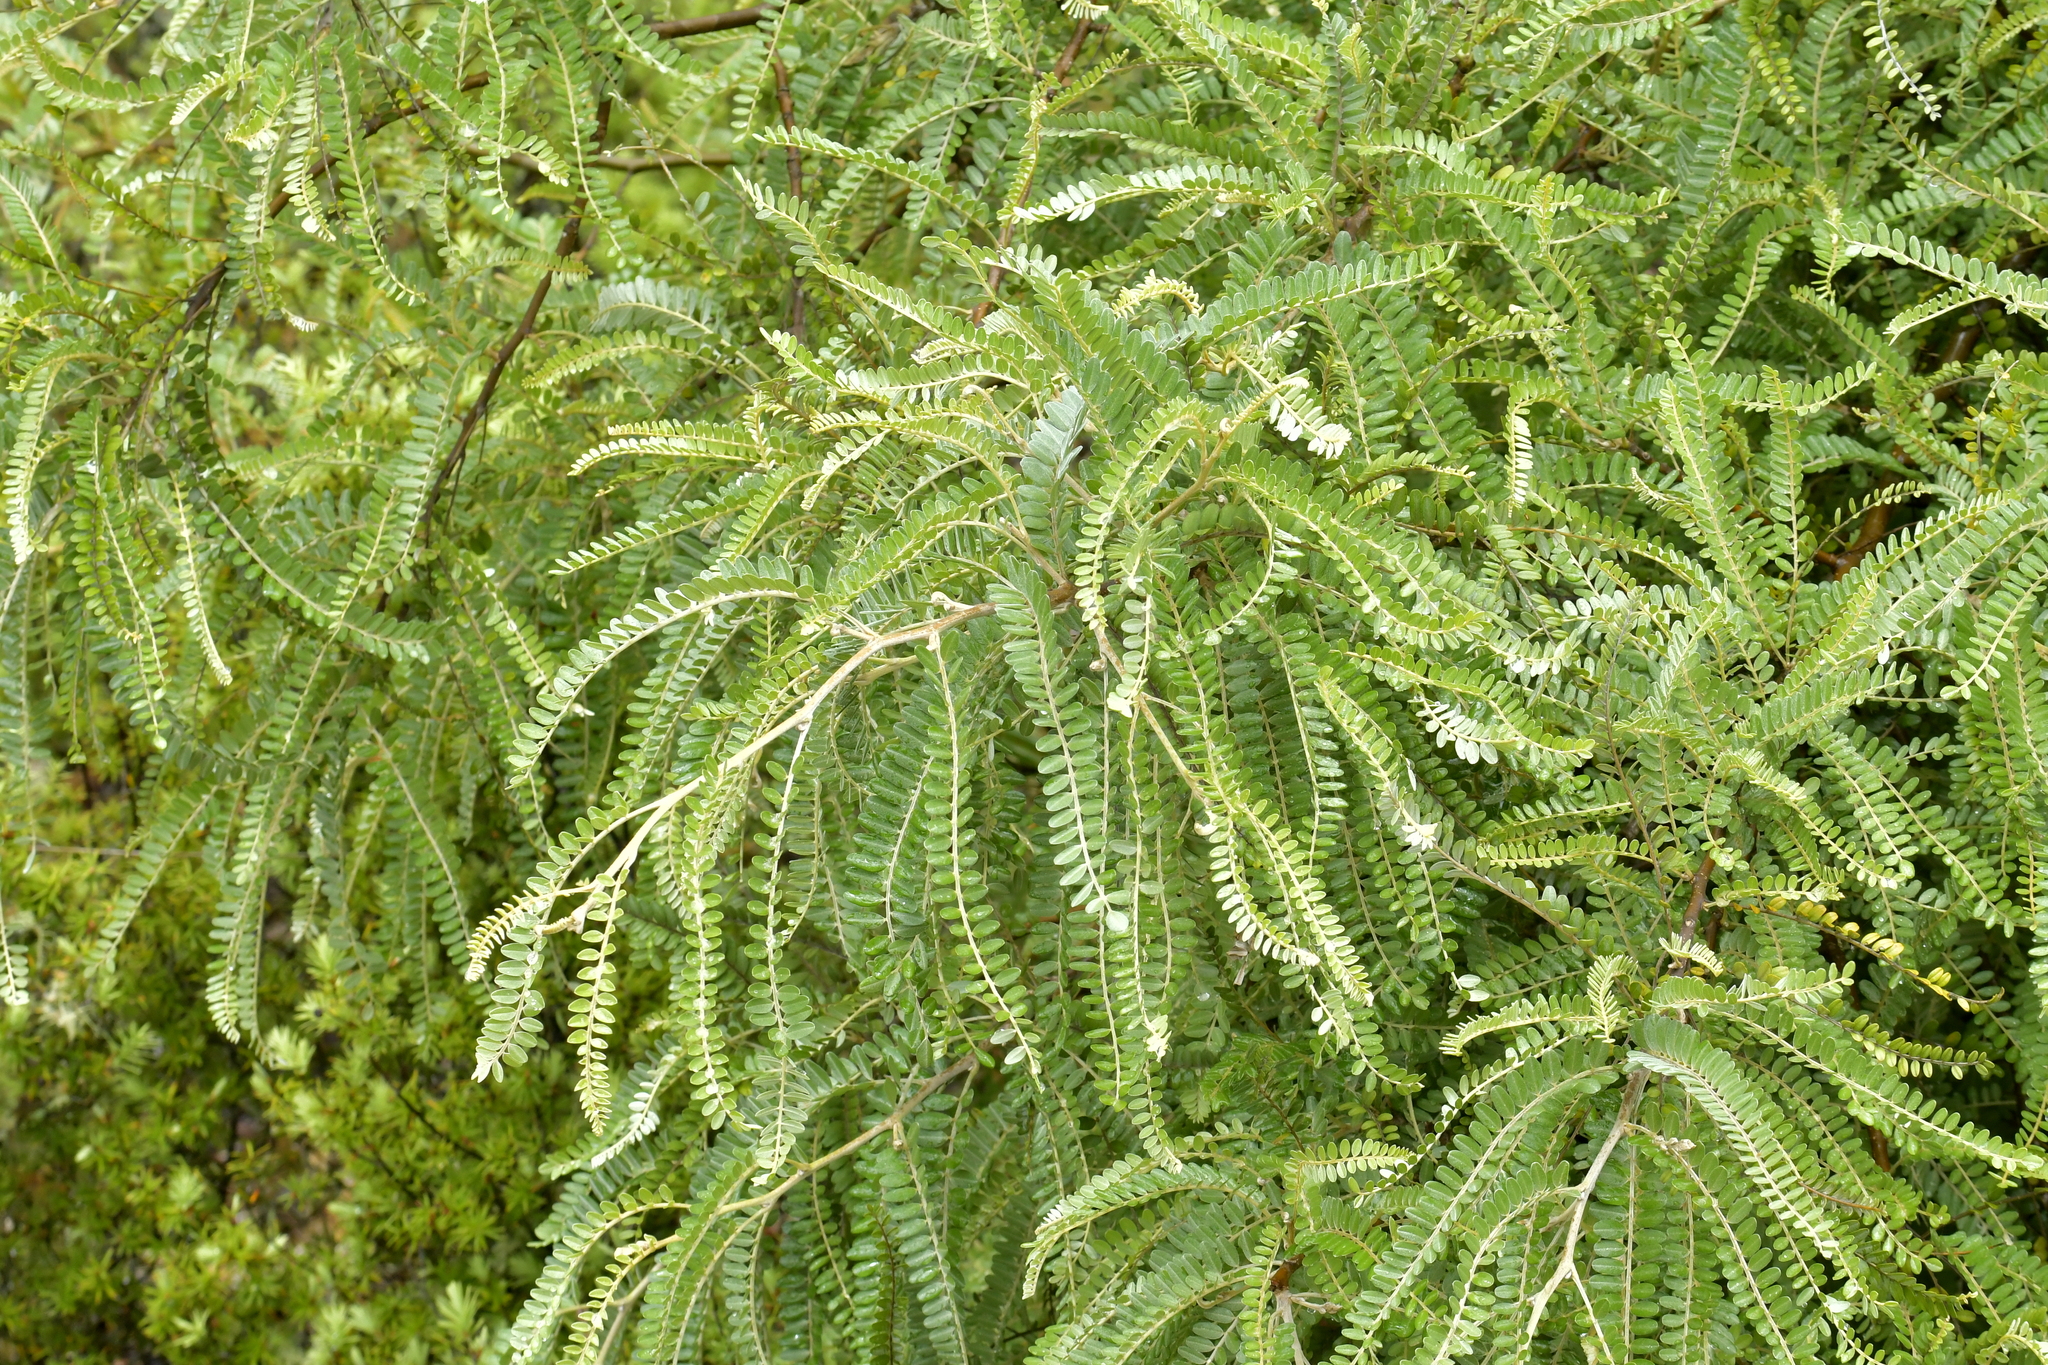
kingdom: Plantae
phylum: Tracheophyta
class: Magnoliopsida
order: Fabales
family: Fabaceae
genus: Sophora
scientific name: Sophora chathamica
